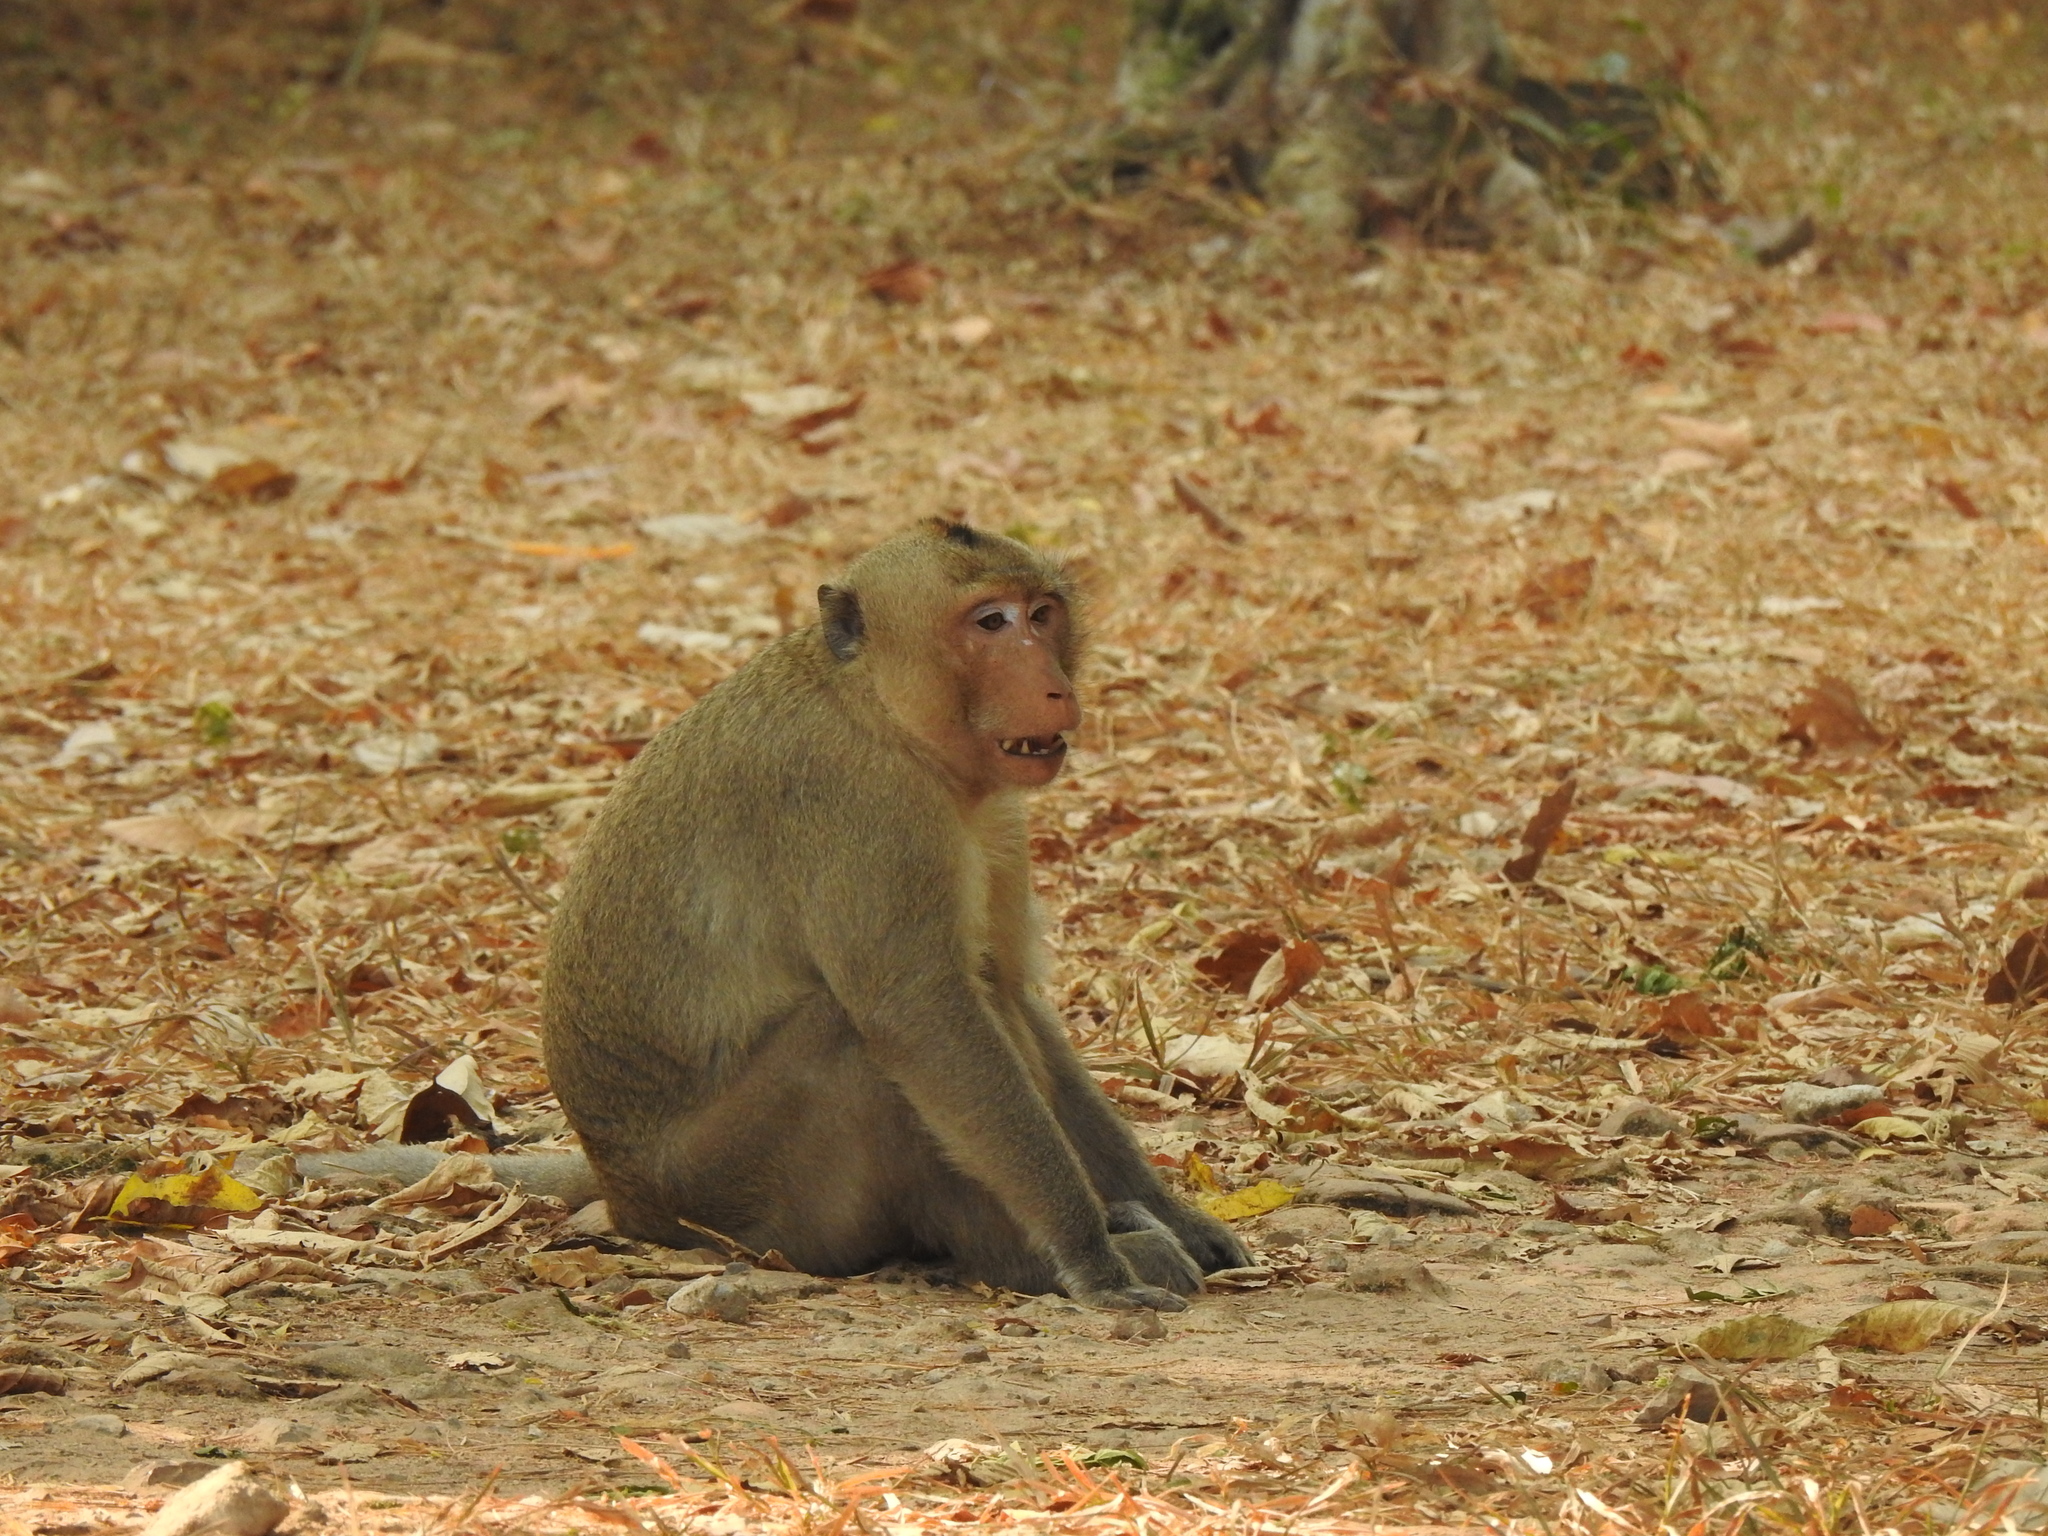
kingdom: Animalia
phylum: Chordata
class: Mammalia
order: Primates
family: Cercopithecidae
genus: Macaca
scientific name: Macaca fascicularis
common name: Crab-eating macaque
